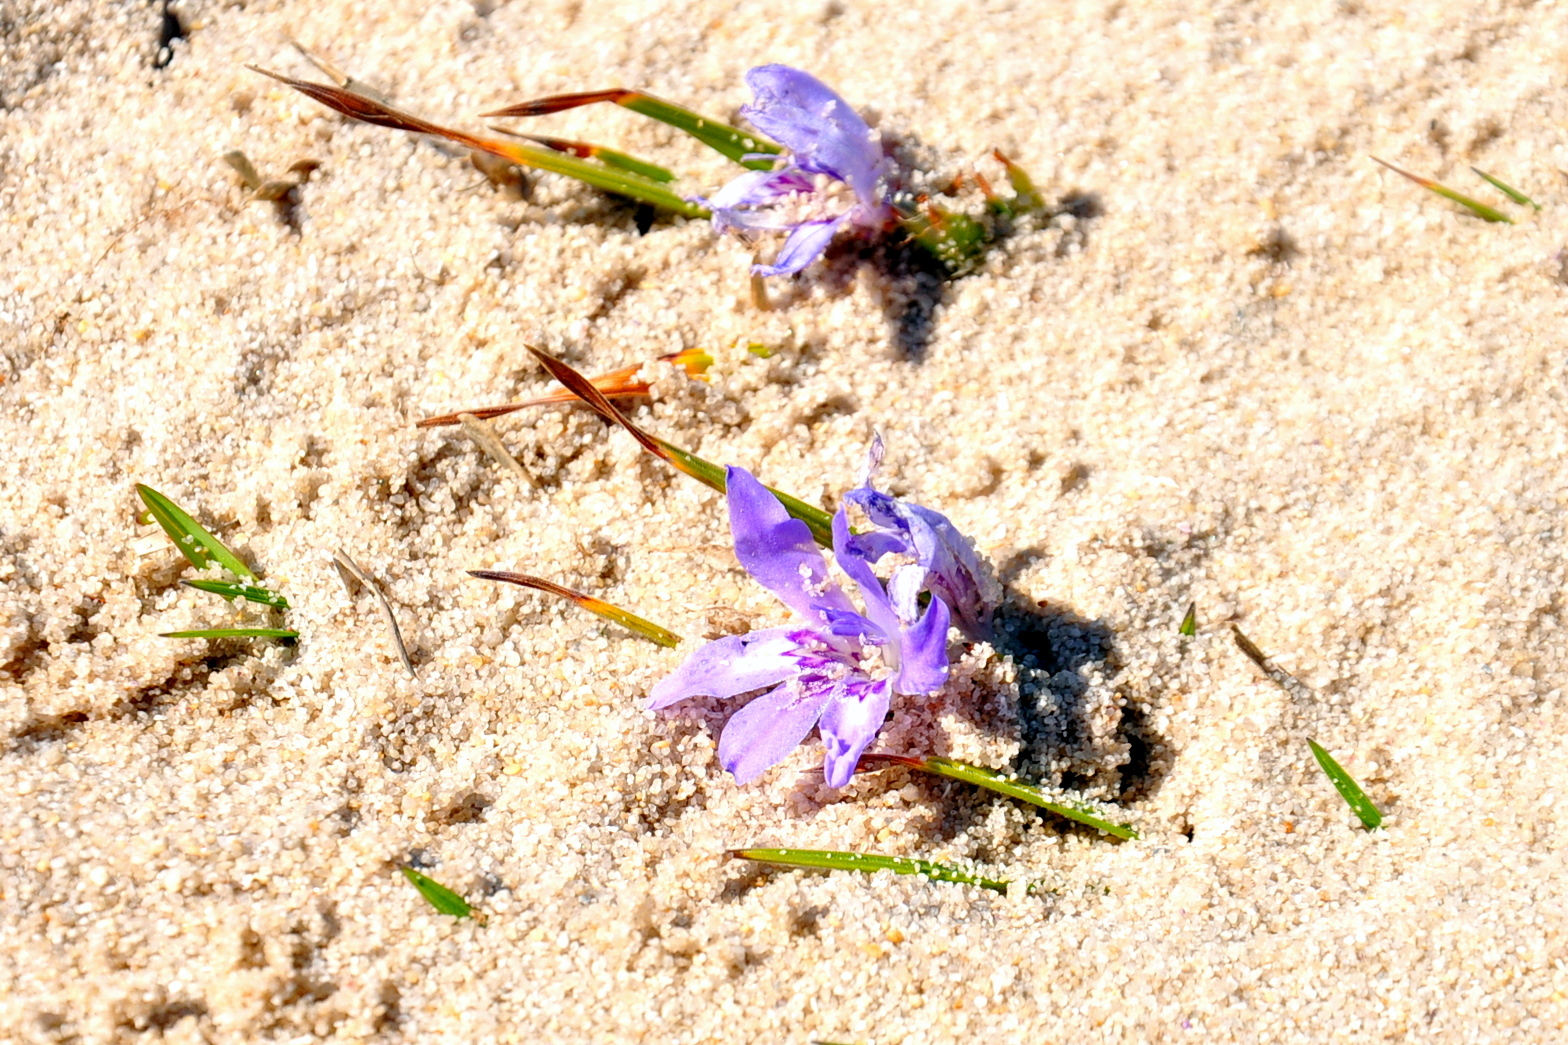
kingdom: Plantae
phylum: Tracheophyta
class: Liliopsida
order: Asparagales
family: Iridaceae
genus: Babiana
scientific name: Babiana ambigua
